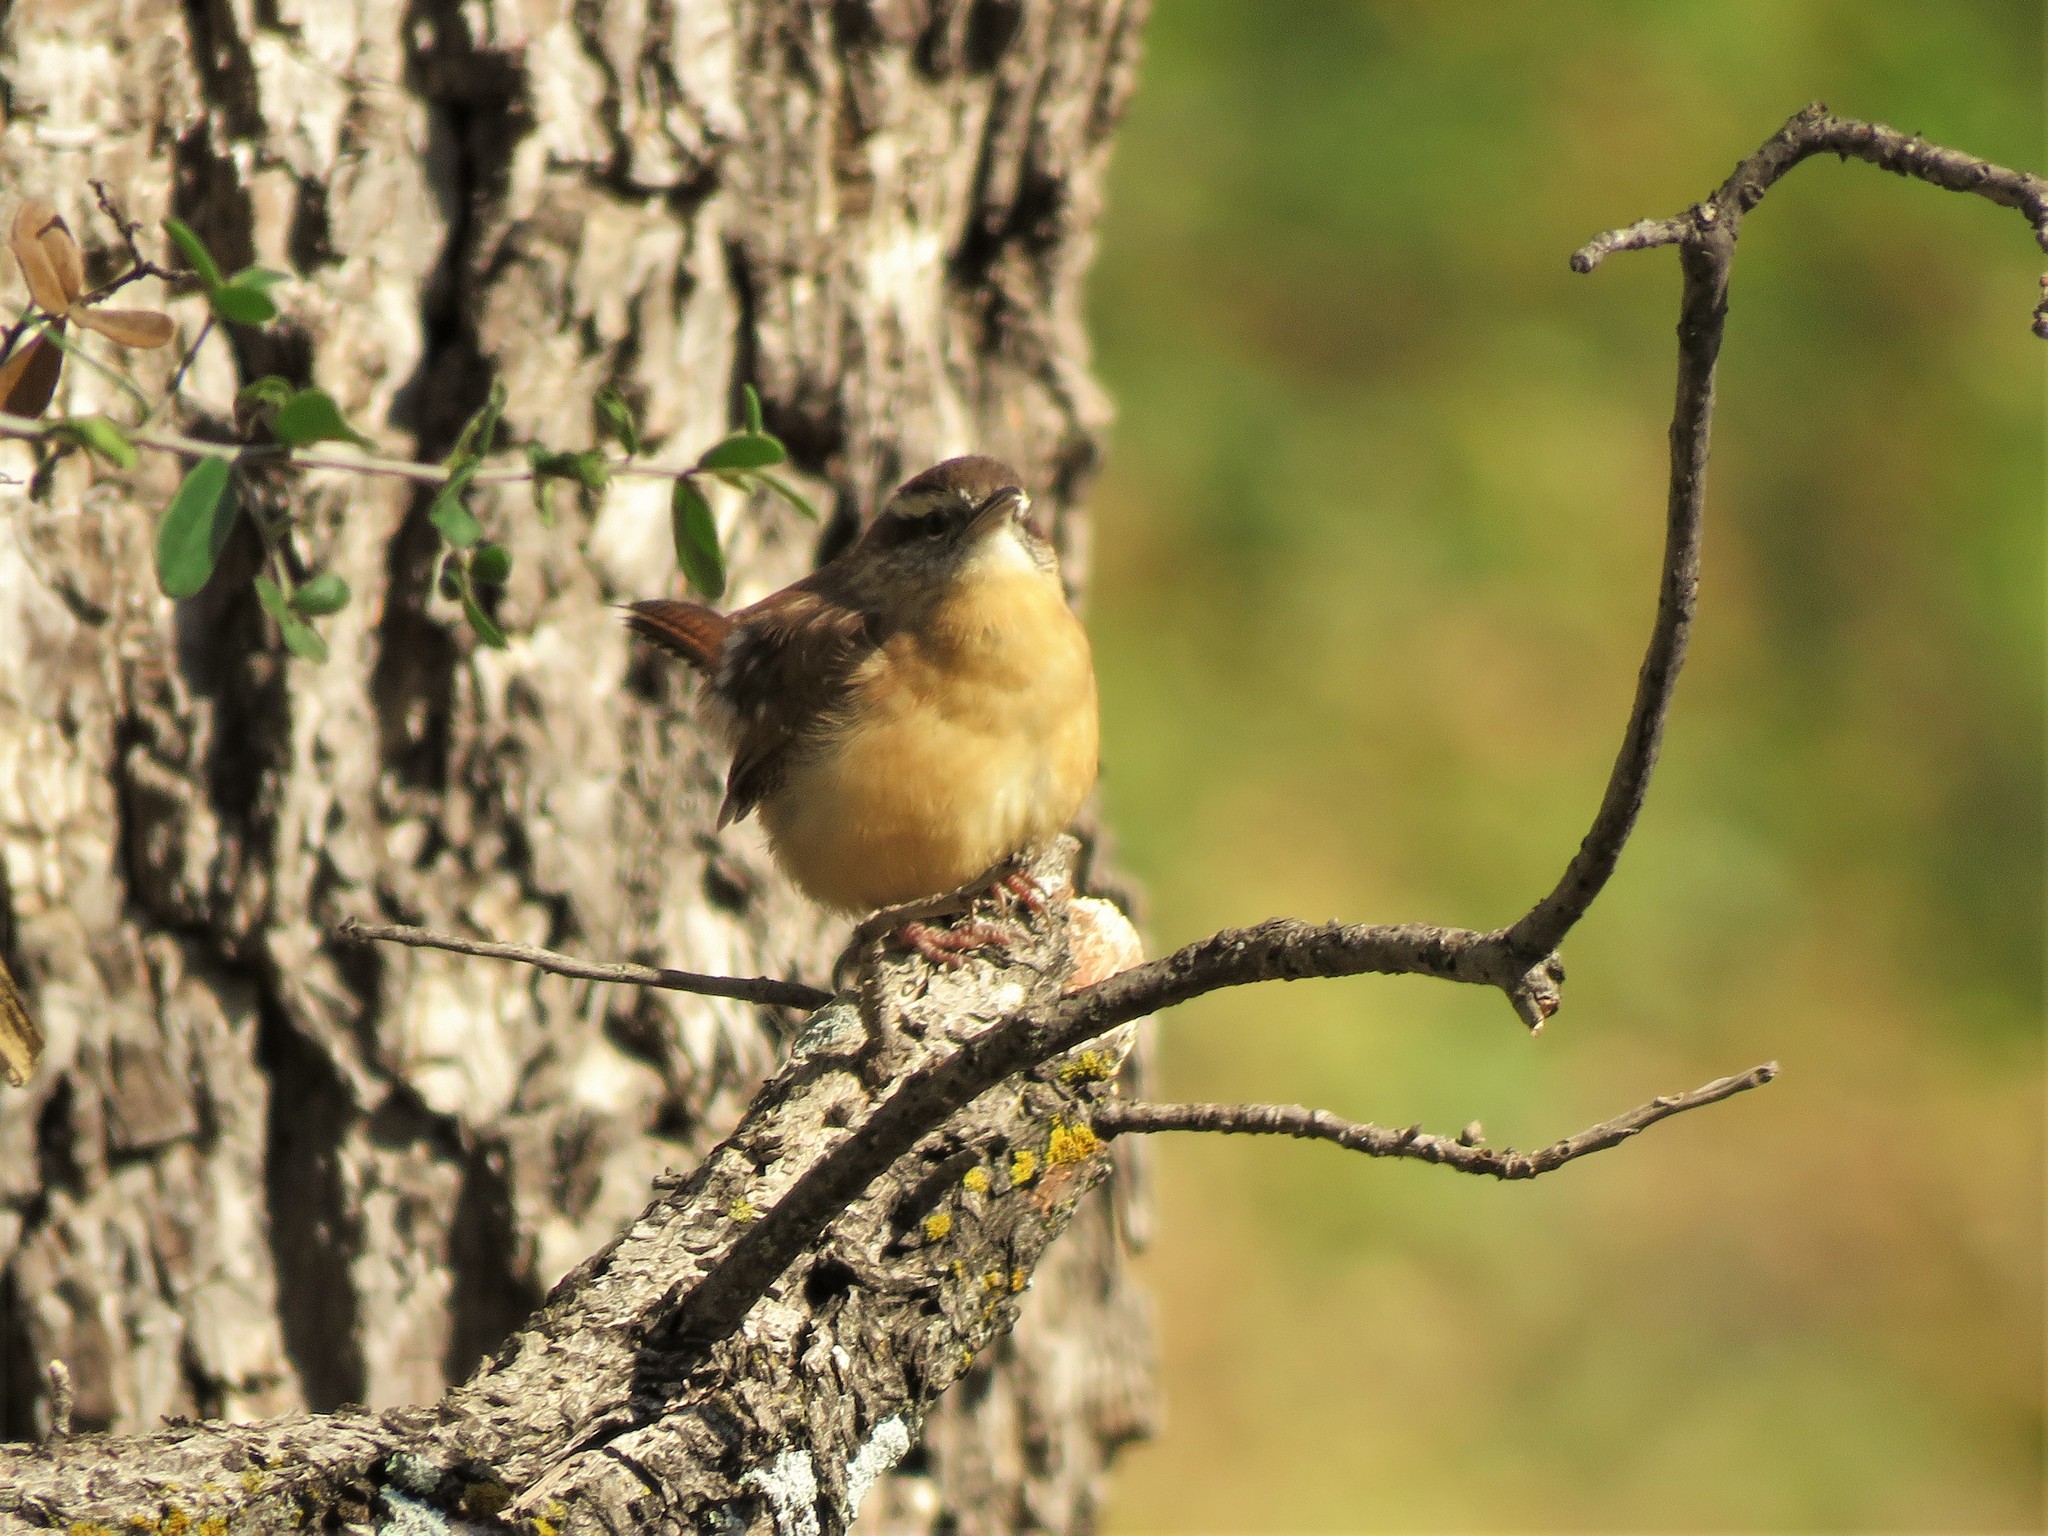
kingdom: Animalia
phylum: Chordata
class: Aves
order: Passeriformes
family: Troglodytidae
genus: Thryothorus
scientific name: Thryothorus ludovicianus
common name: Carolina wren
